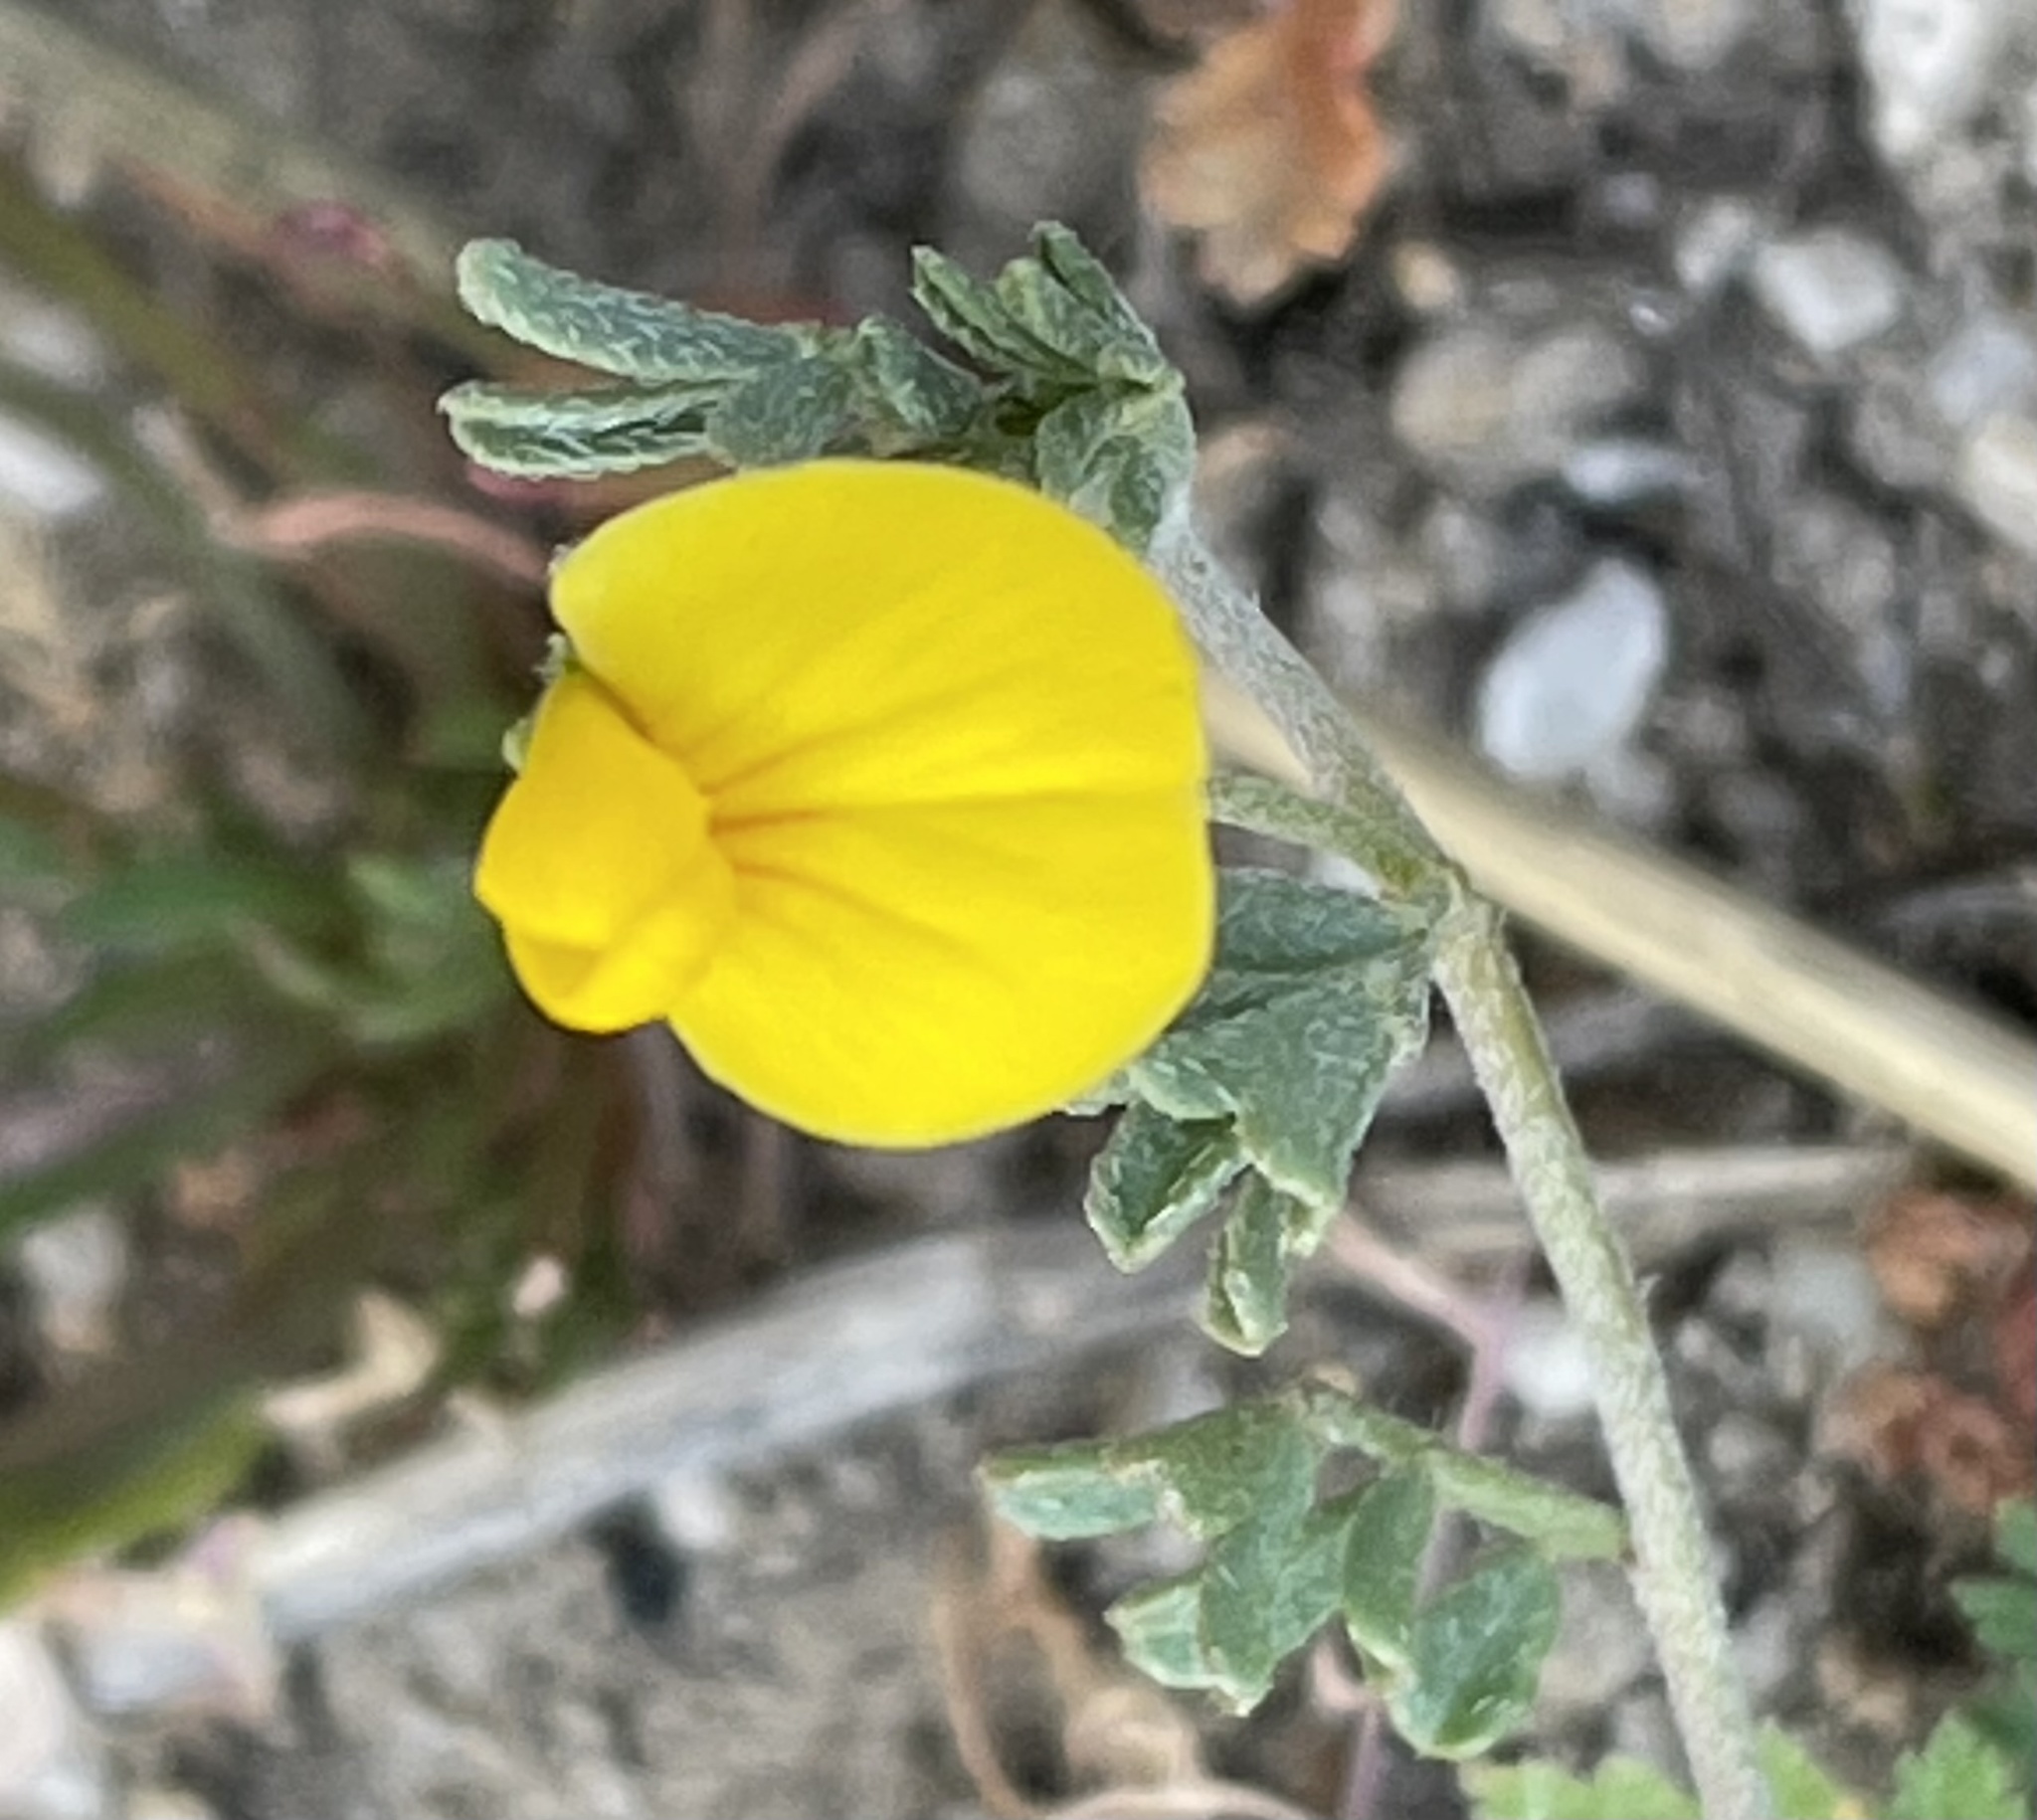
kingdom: Plantae
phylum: Tracheophyta
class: Magnoliopsida
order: Fabales
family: Fabaceae
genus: Acmispon
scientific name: Acmispon strigosus
